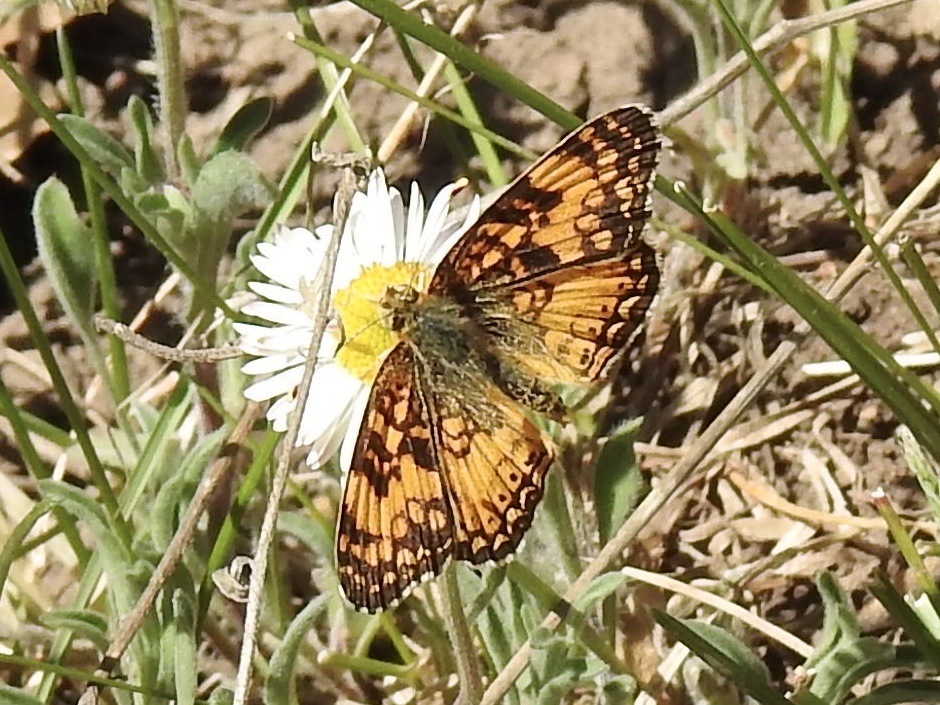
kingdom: Animalia
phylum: Arthropoda
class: Insecta
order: Lepidoptera
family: Nymphalidae
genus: Eresia
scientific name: Eresia aveyrona
